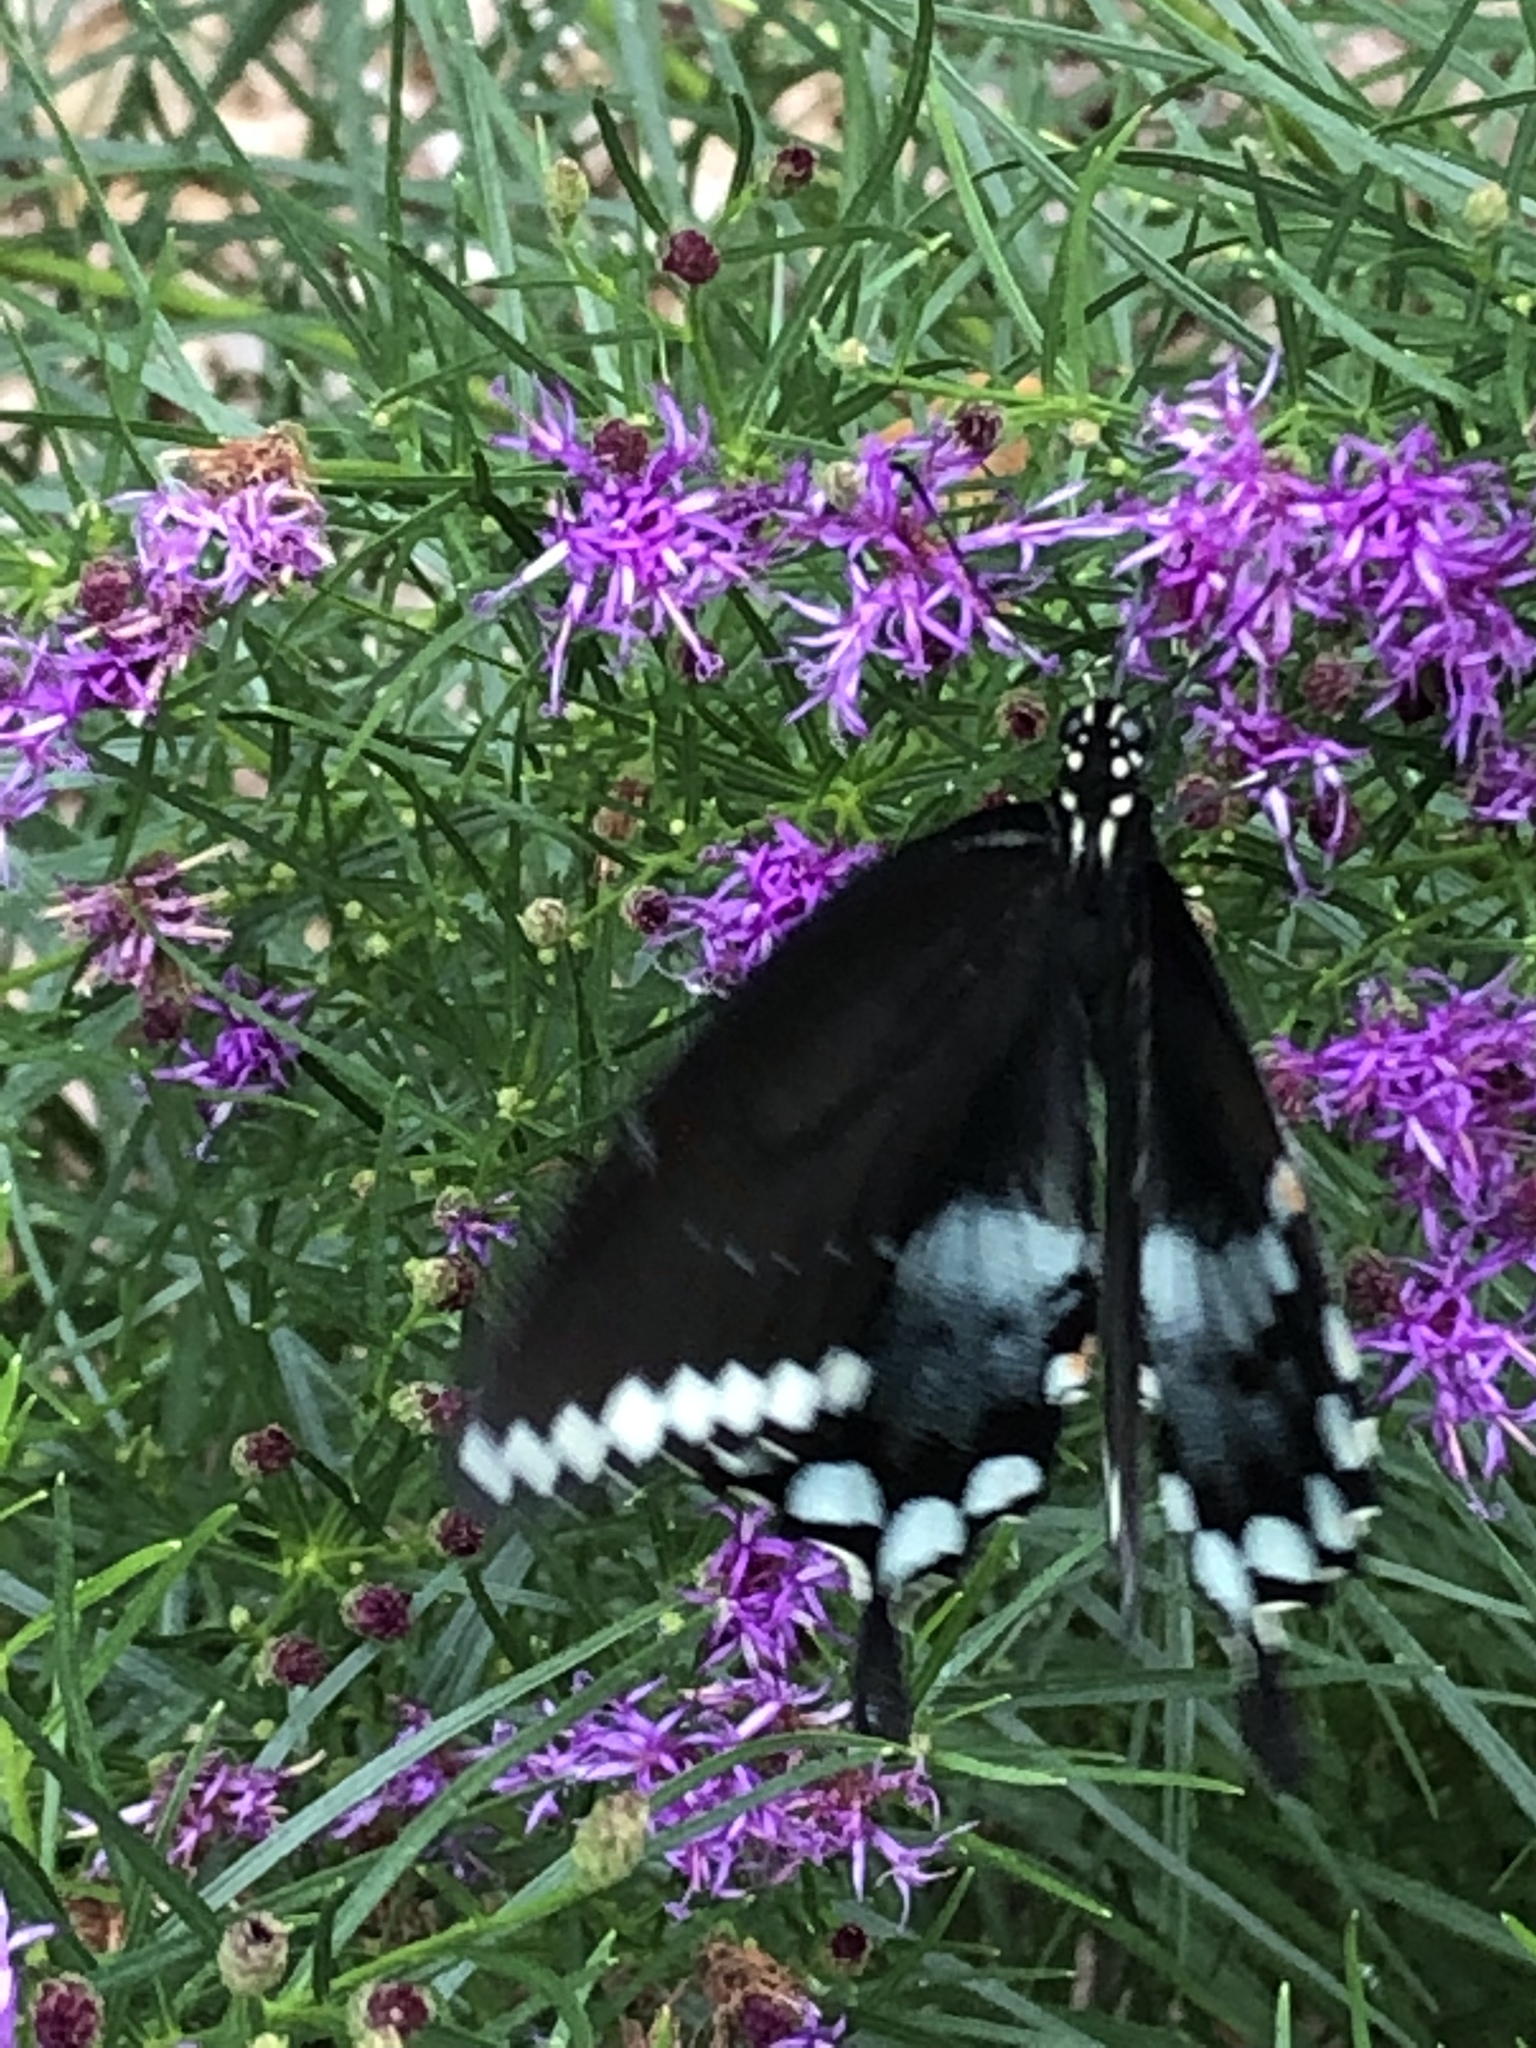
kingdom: Animalia
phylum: Arthropoda
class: Insecta
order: Lepidoptera
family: Papilionidae
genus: Papilio
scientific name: Papilio troilus
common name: Spicebush swallowtail
